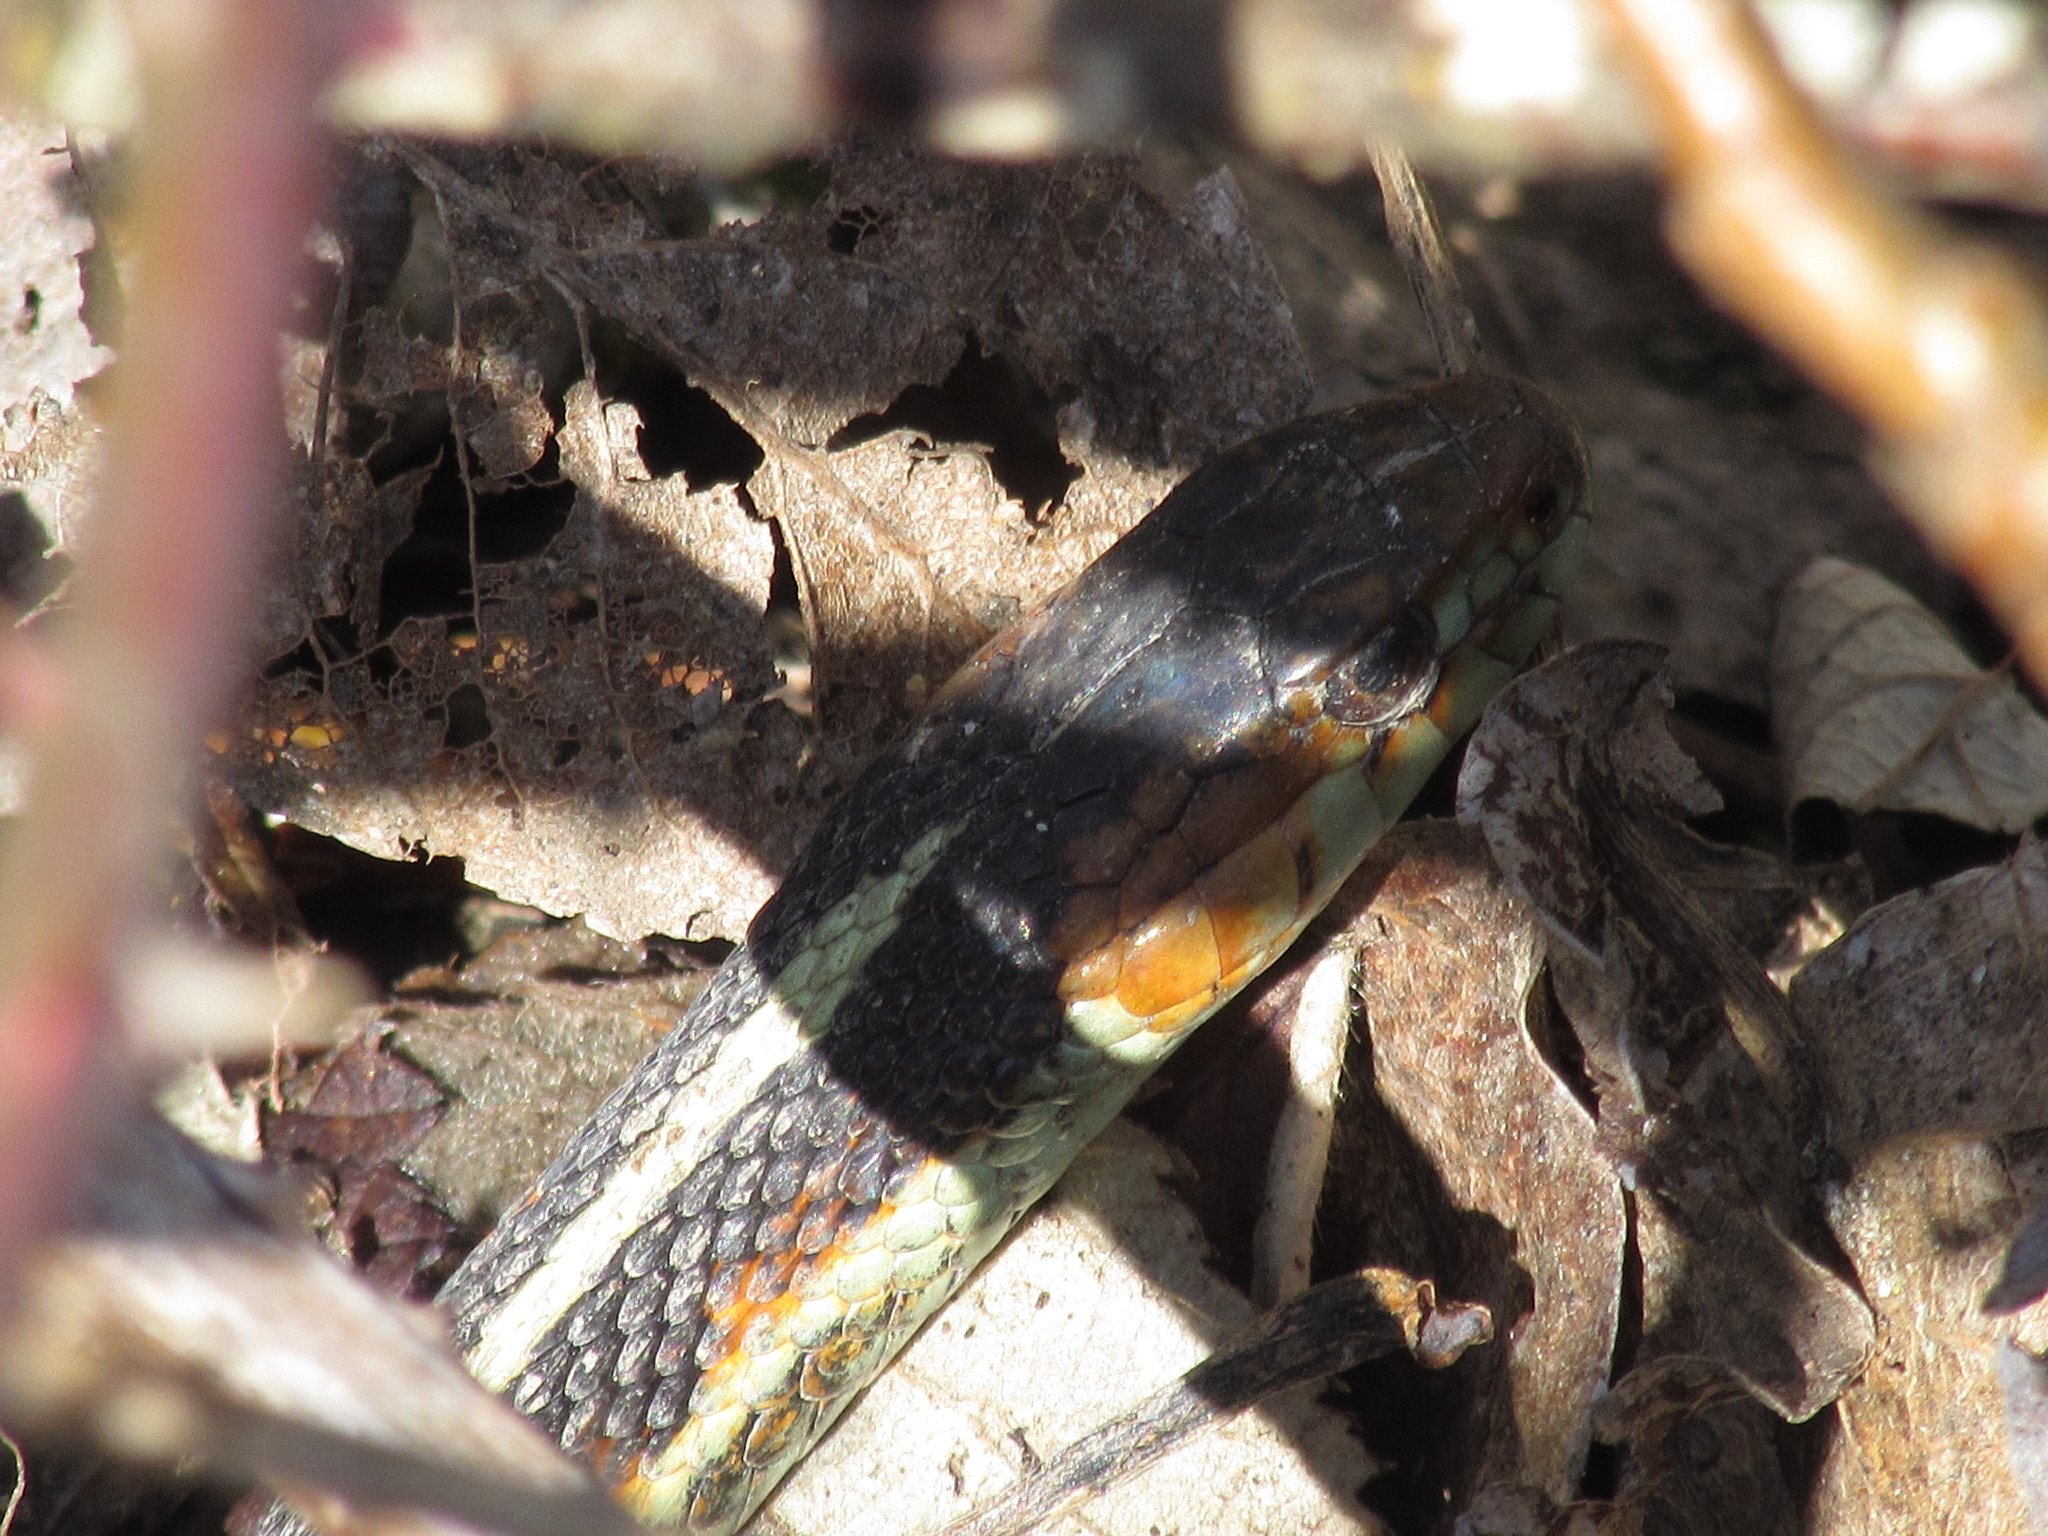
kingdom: Animalia
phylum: Chordata
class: Squamata
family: Colubridae
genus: Thamnophis
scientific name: Thamnophis sirtalis
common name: Common garter snake
